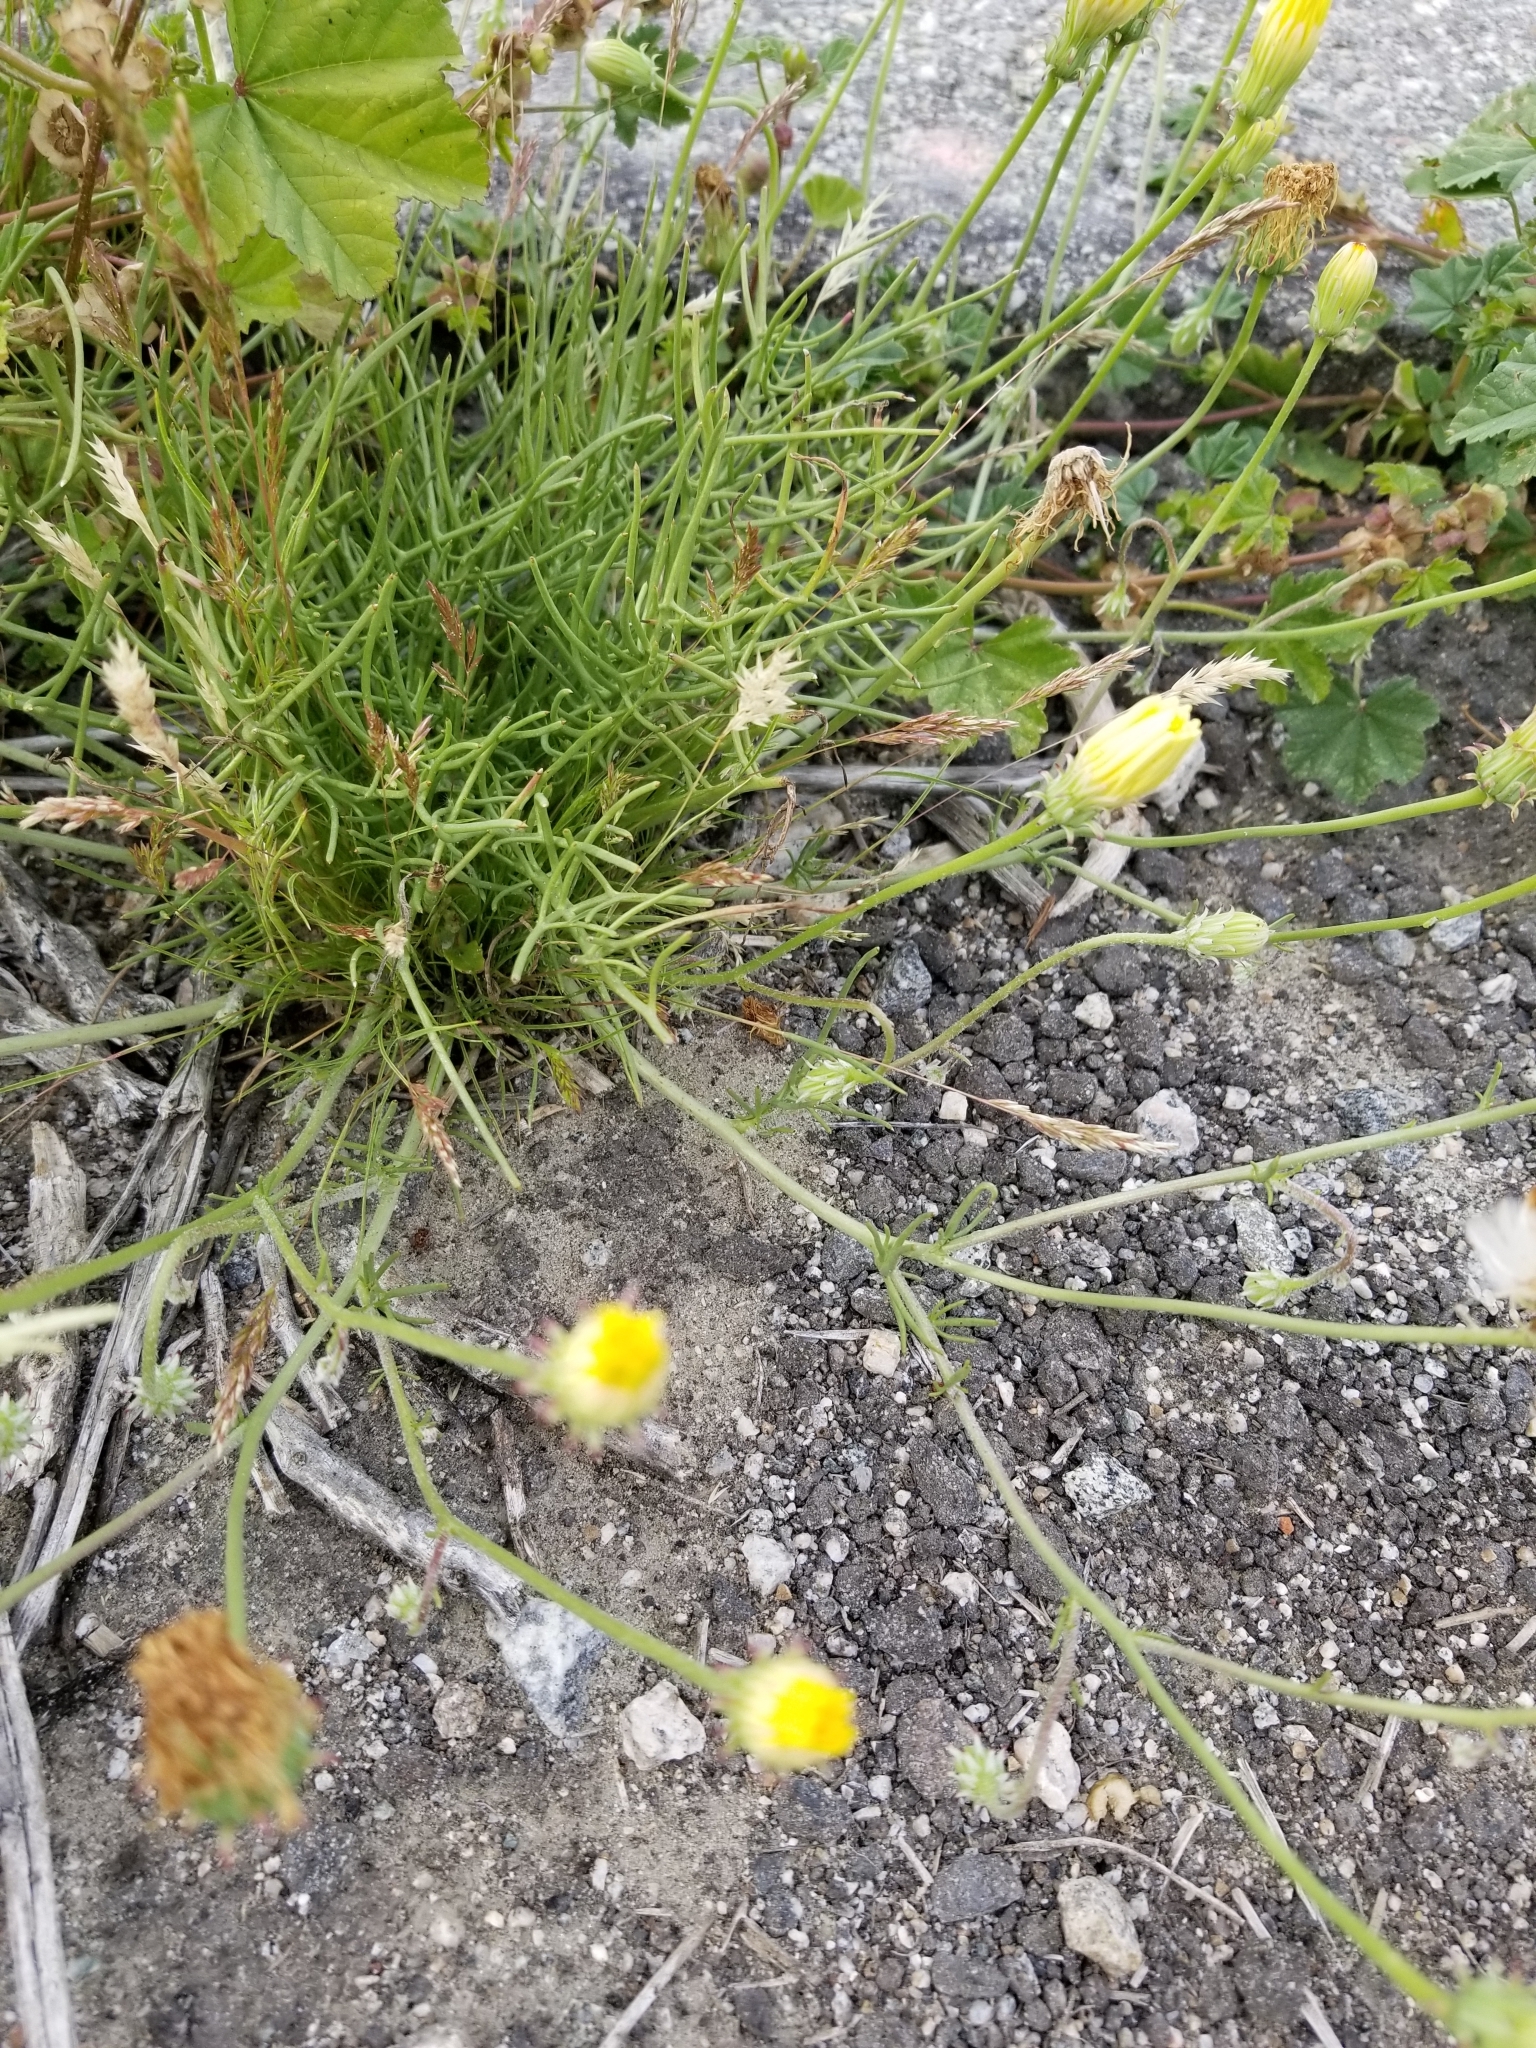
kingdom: Plantae
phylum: Tracheophyta
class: Magnoliopsida
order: Asterales
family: Asteraceae
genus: Malacothrix
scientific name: Malacothrix glabrata
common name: Smooth desert-dandelion
